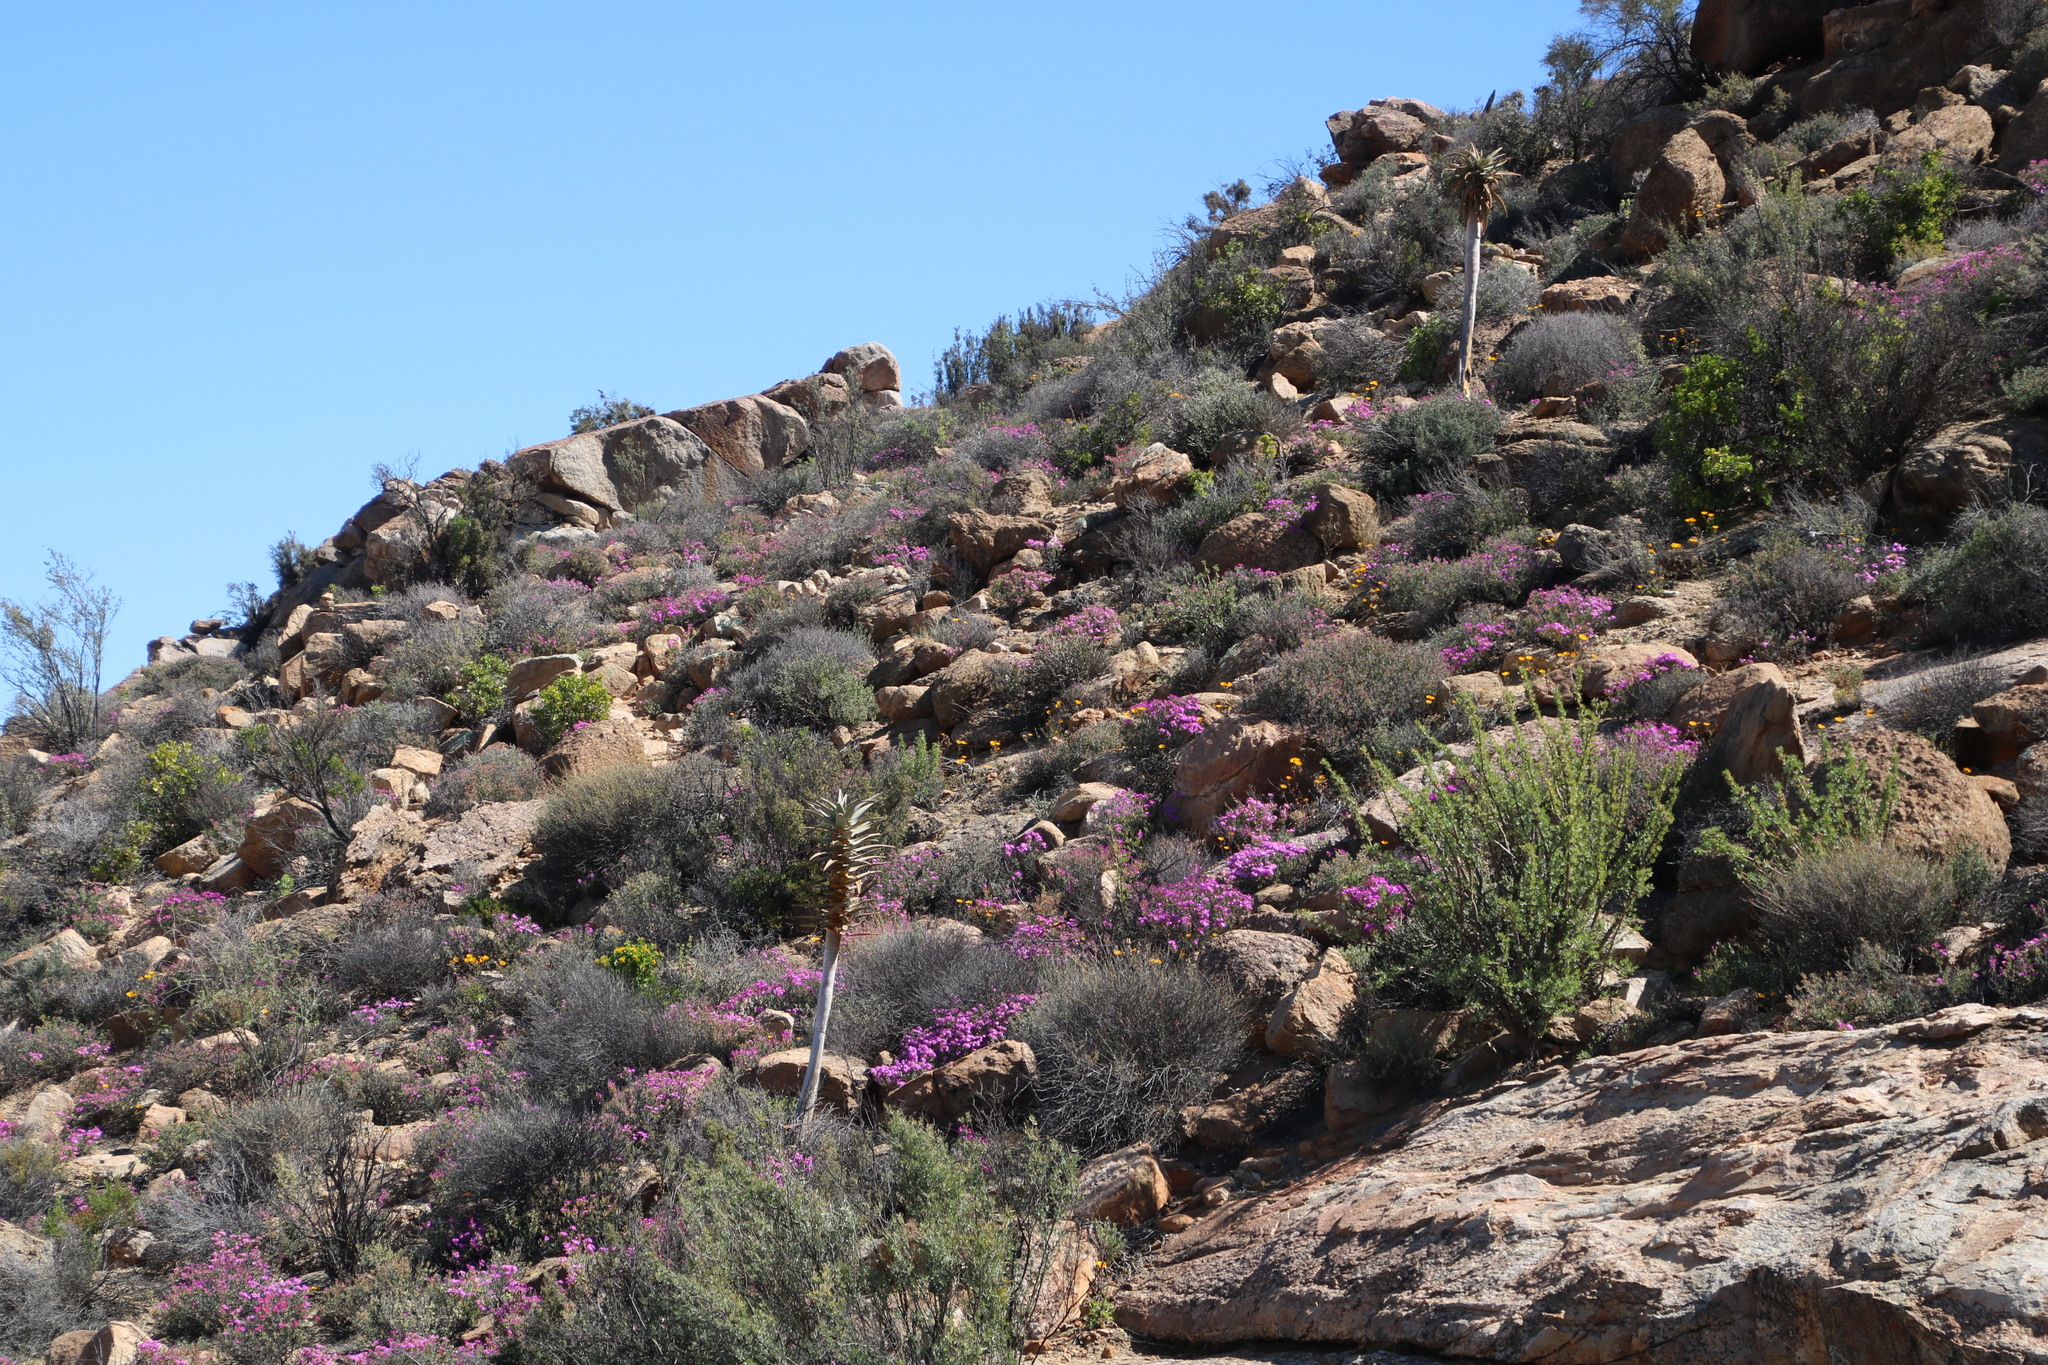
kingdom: Plantae
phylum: Tracheophyta
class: Liliopsida
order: Asparagales
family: Asphodelaceae
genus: Aloidendron
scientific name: Aloidendron dichotomum
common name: Quiver tree
